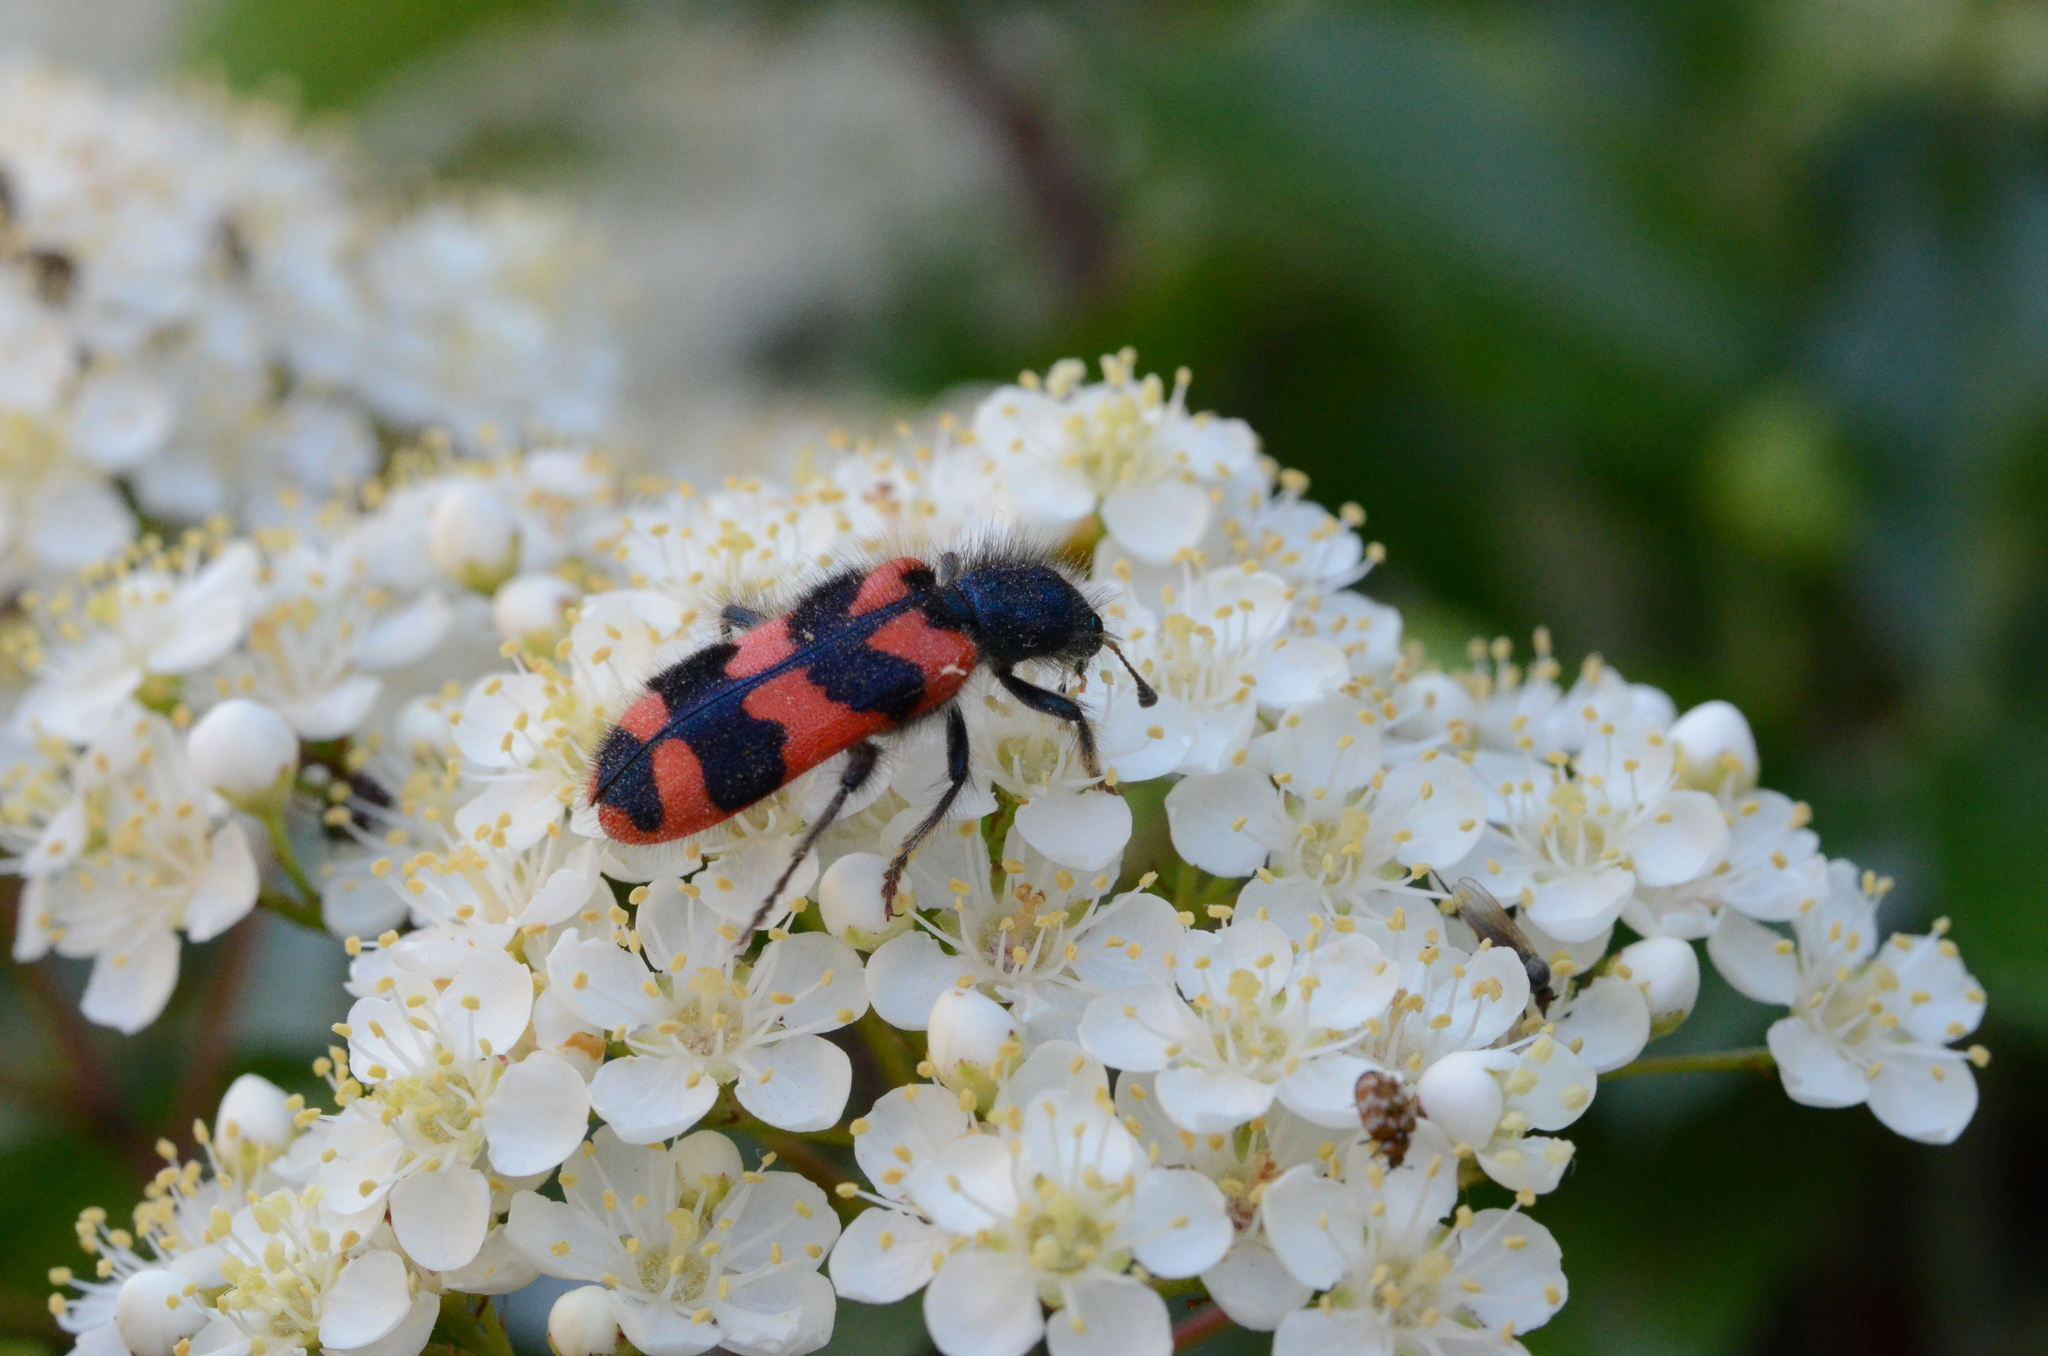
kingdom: Animalia
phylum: Arthropoda
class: Insecta
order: Coleoptera
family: Cleridae
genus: Trichodes
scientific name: Trichodes alvearius
